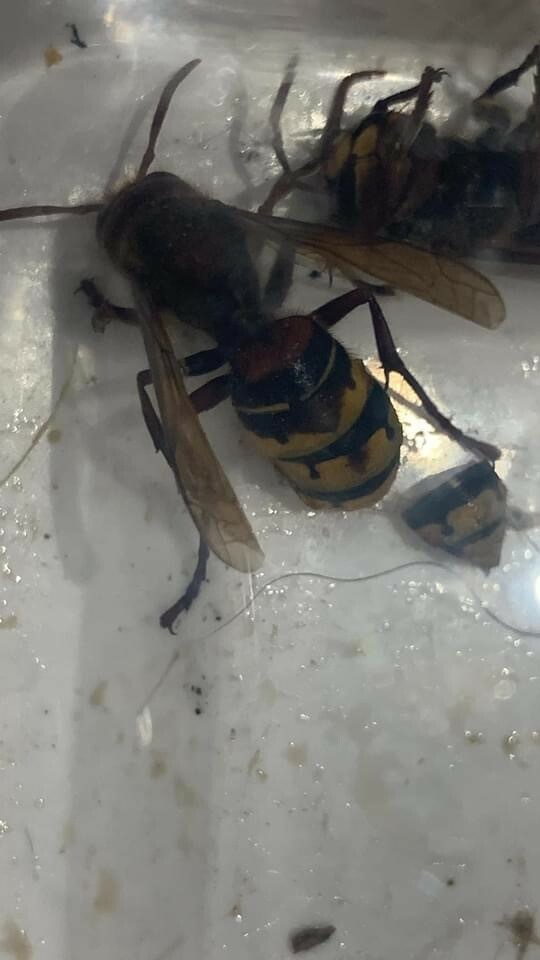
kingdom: Animalia
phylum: Arthropoda
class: Insecta
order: Hymenoptera
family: Vespidae
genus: Vespa
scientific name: Vespa crabro
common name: Hornet
